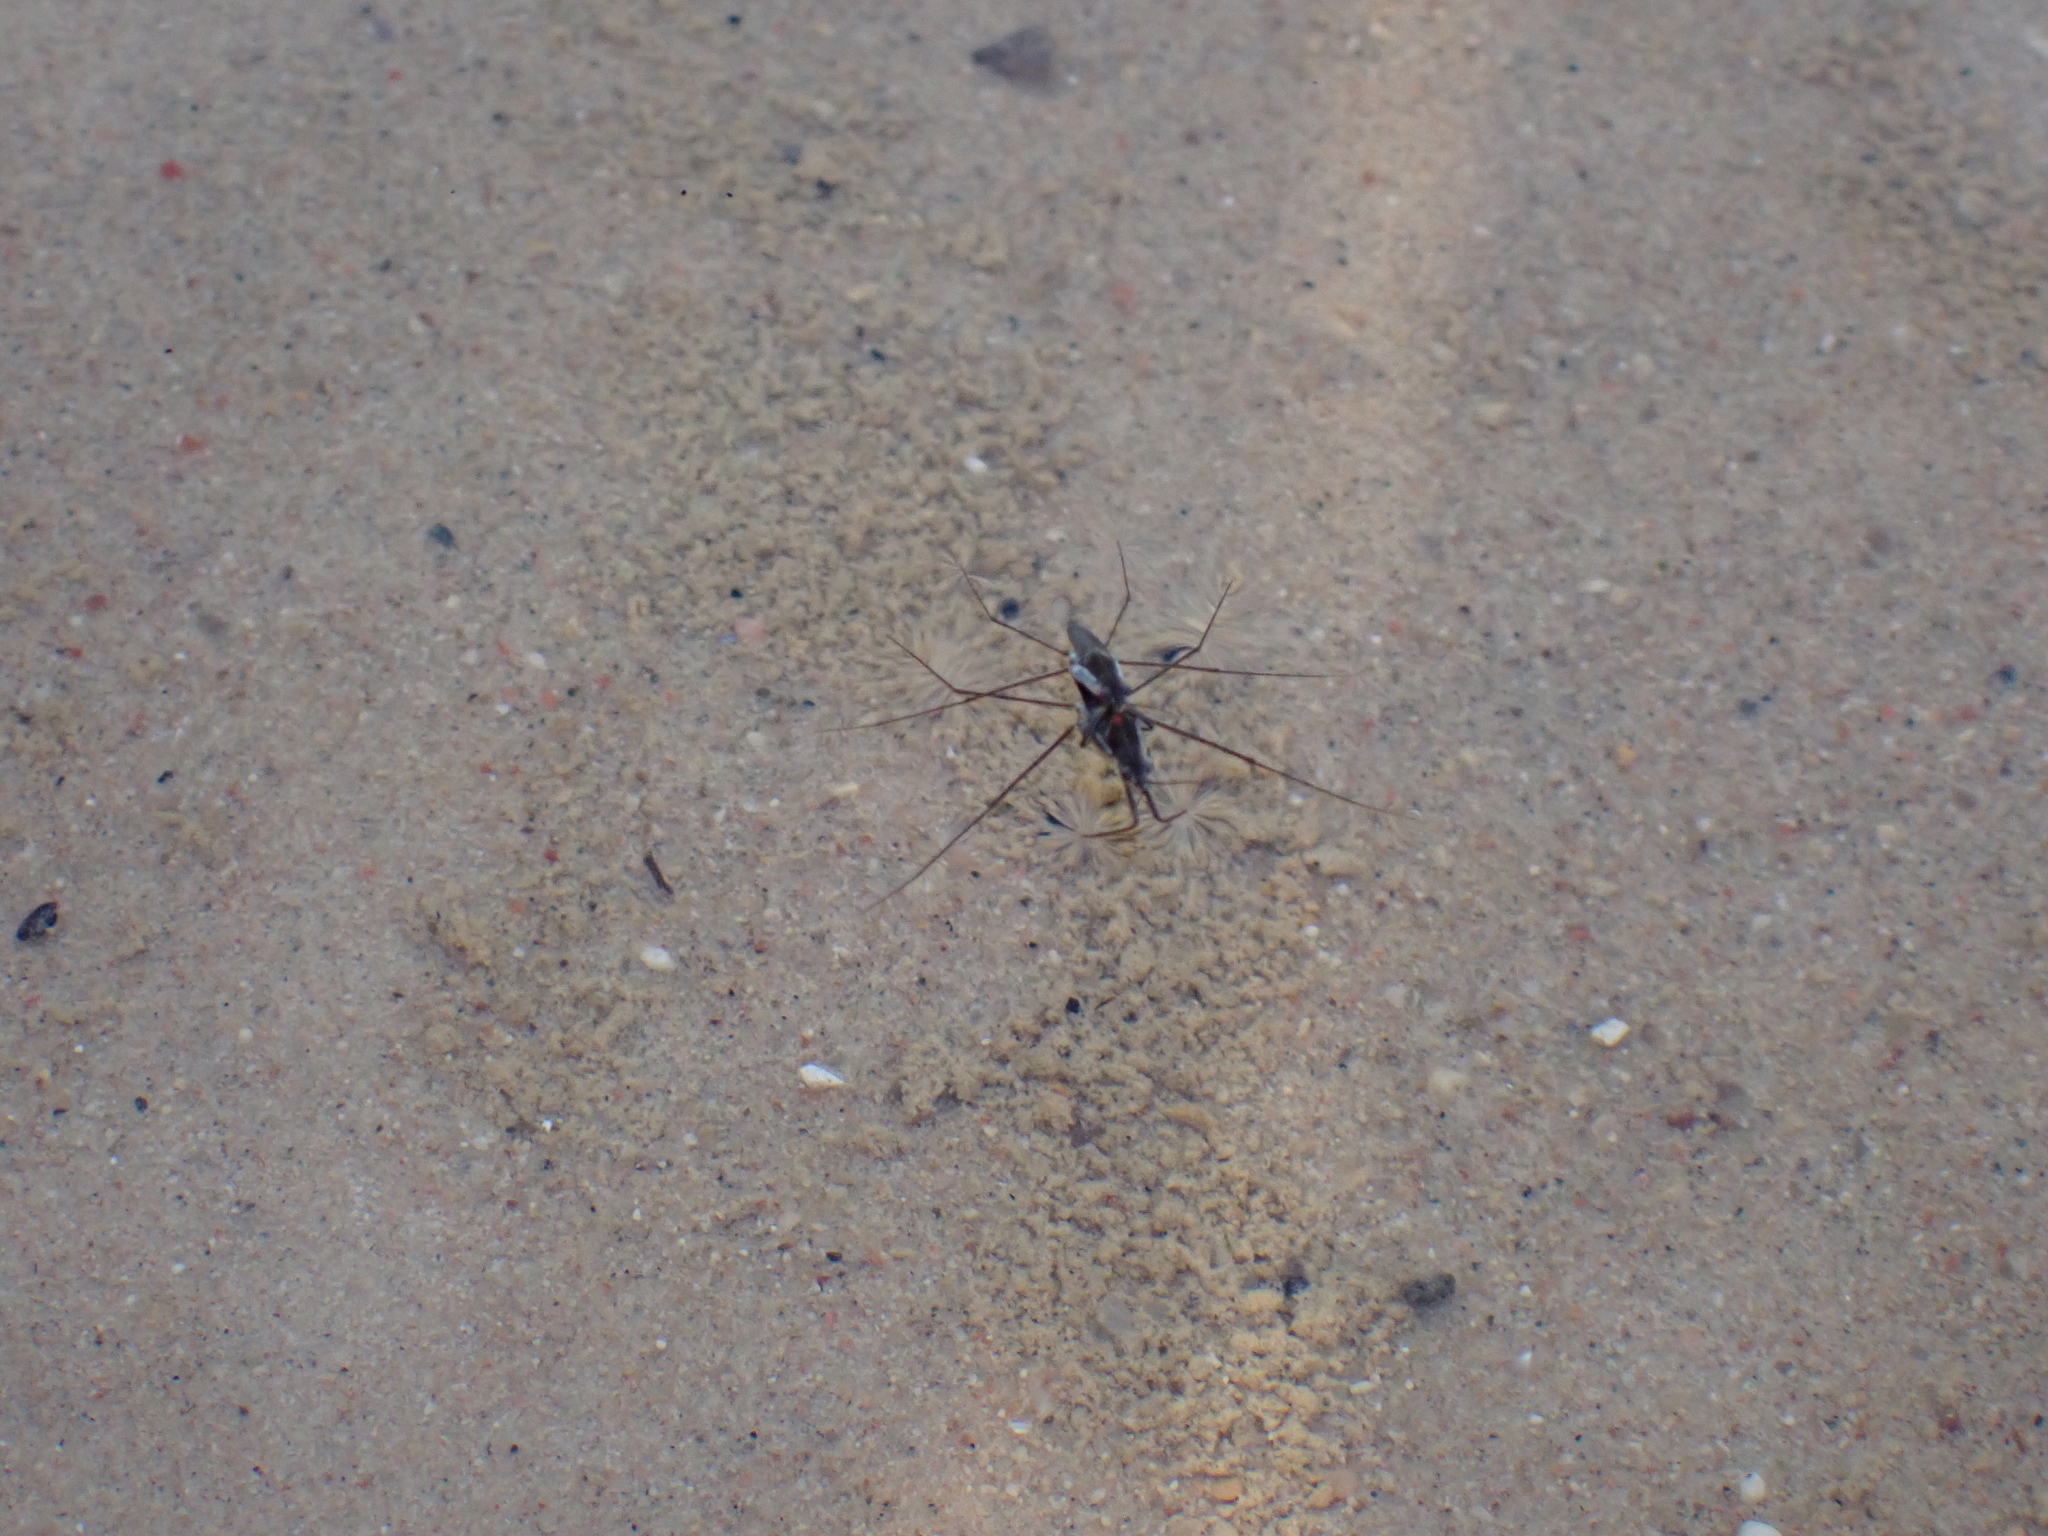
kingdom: Animalia
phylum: Arthropoda
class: Insecta
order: Hemiptera
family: Gerridae
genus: Gerris
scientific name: Gerris
